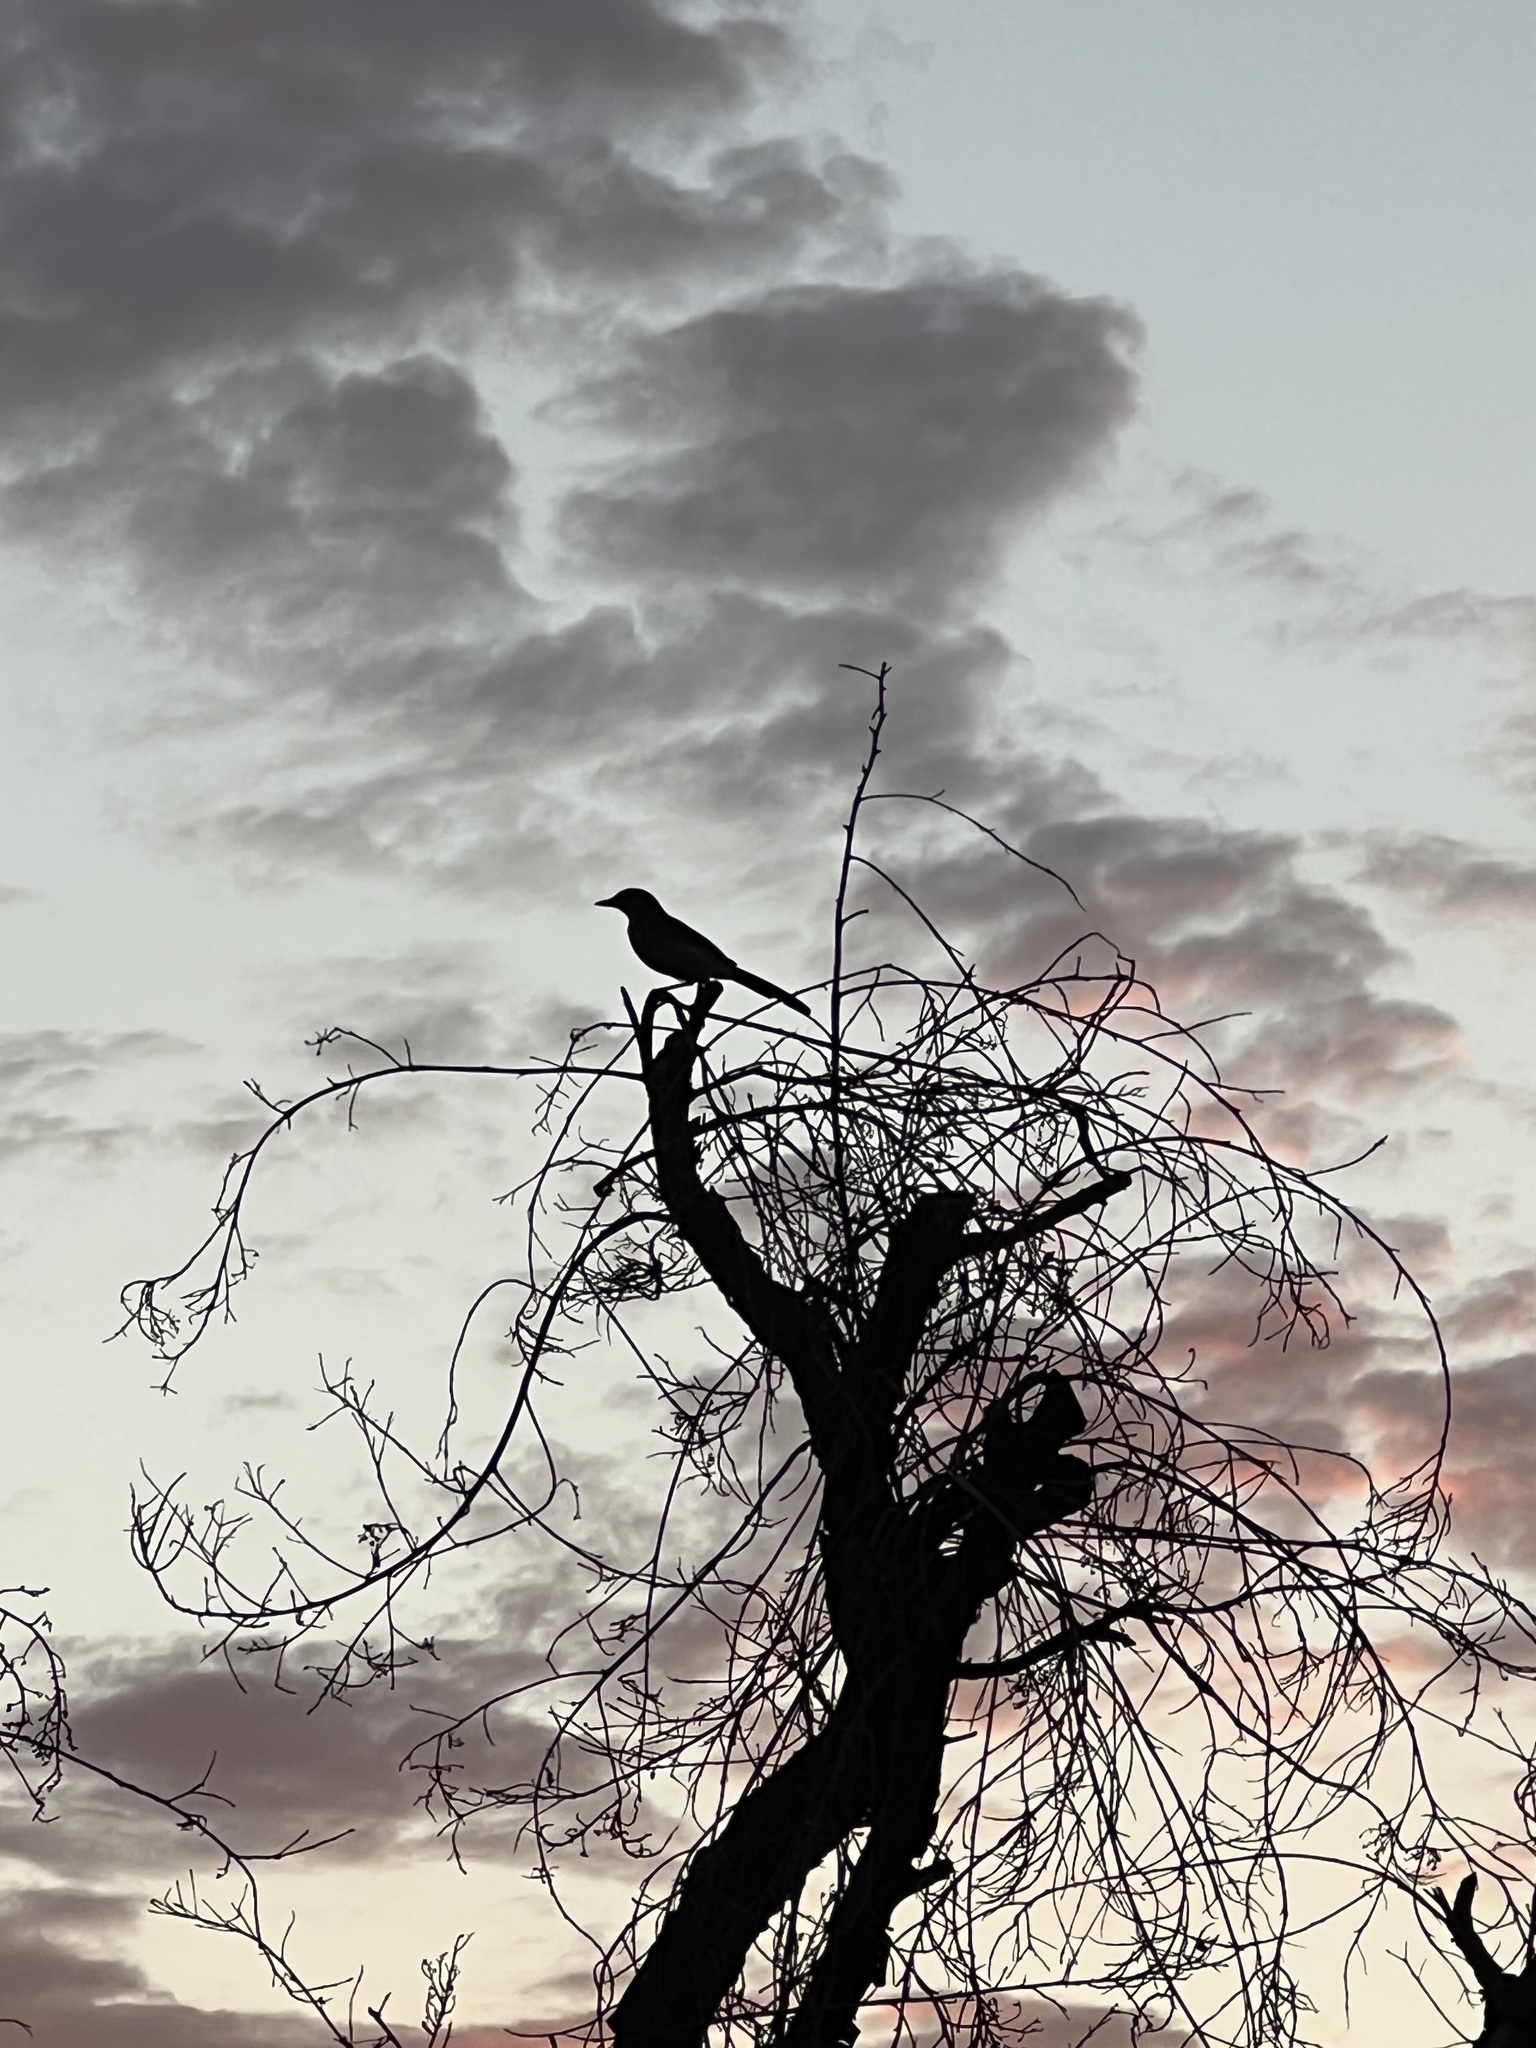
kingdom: Animalia
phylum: Chordata
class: Aves
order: Passeriformes
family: Corvidae
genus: Aphelocoma
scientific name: Aphelocoma californica
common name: California scrub-jay
